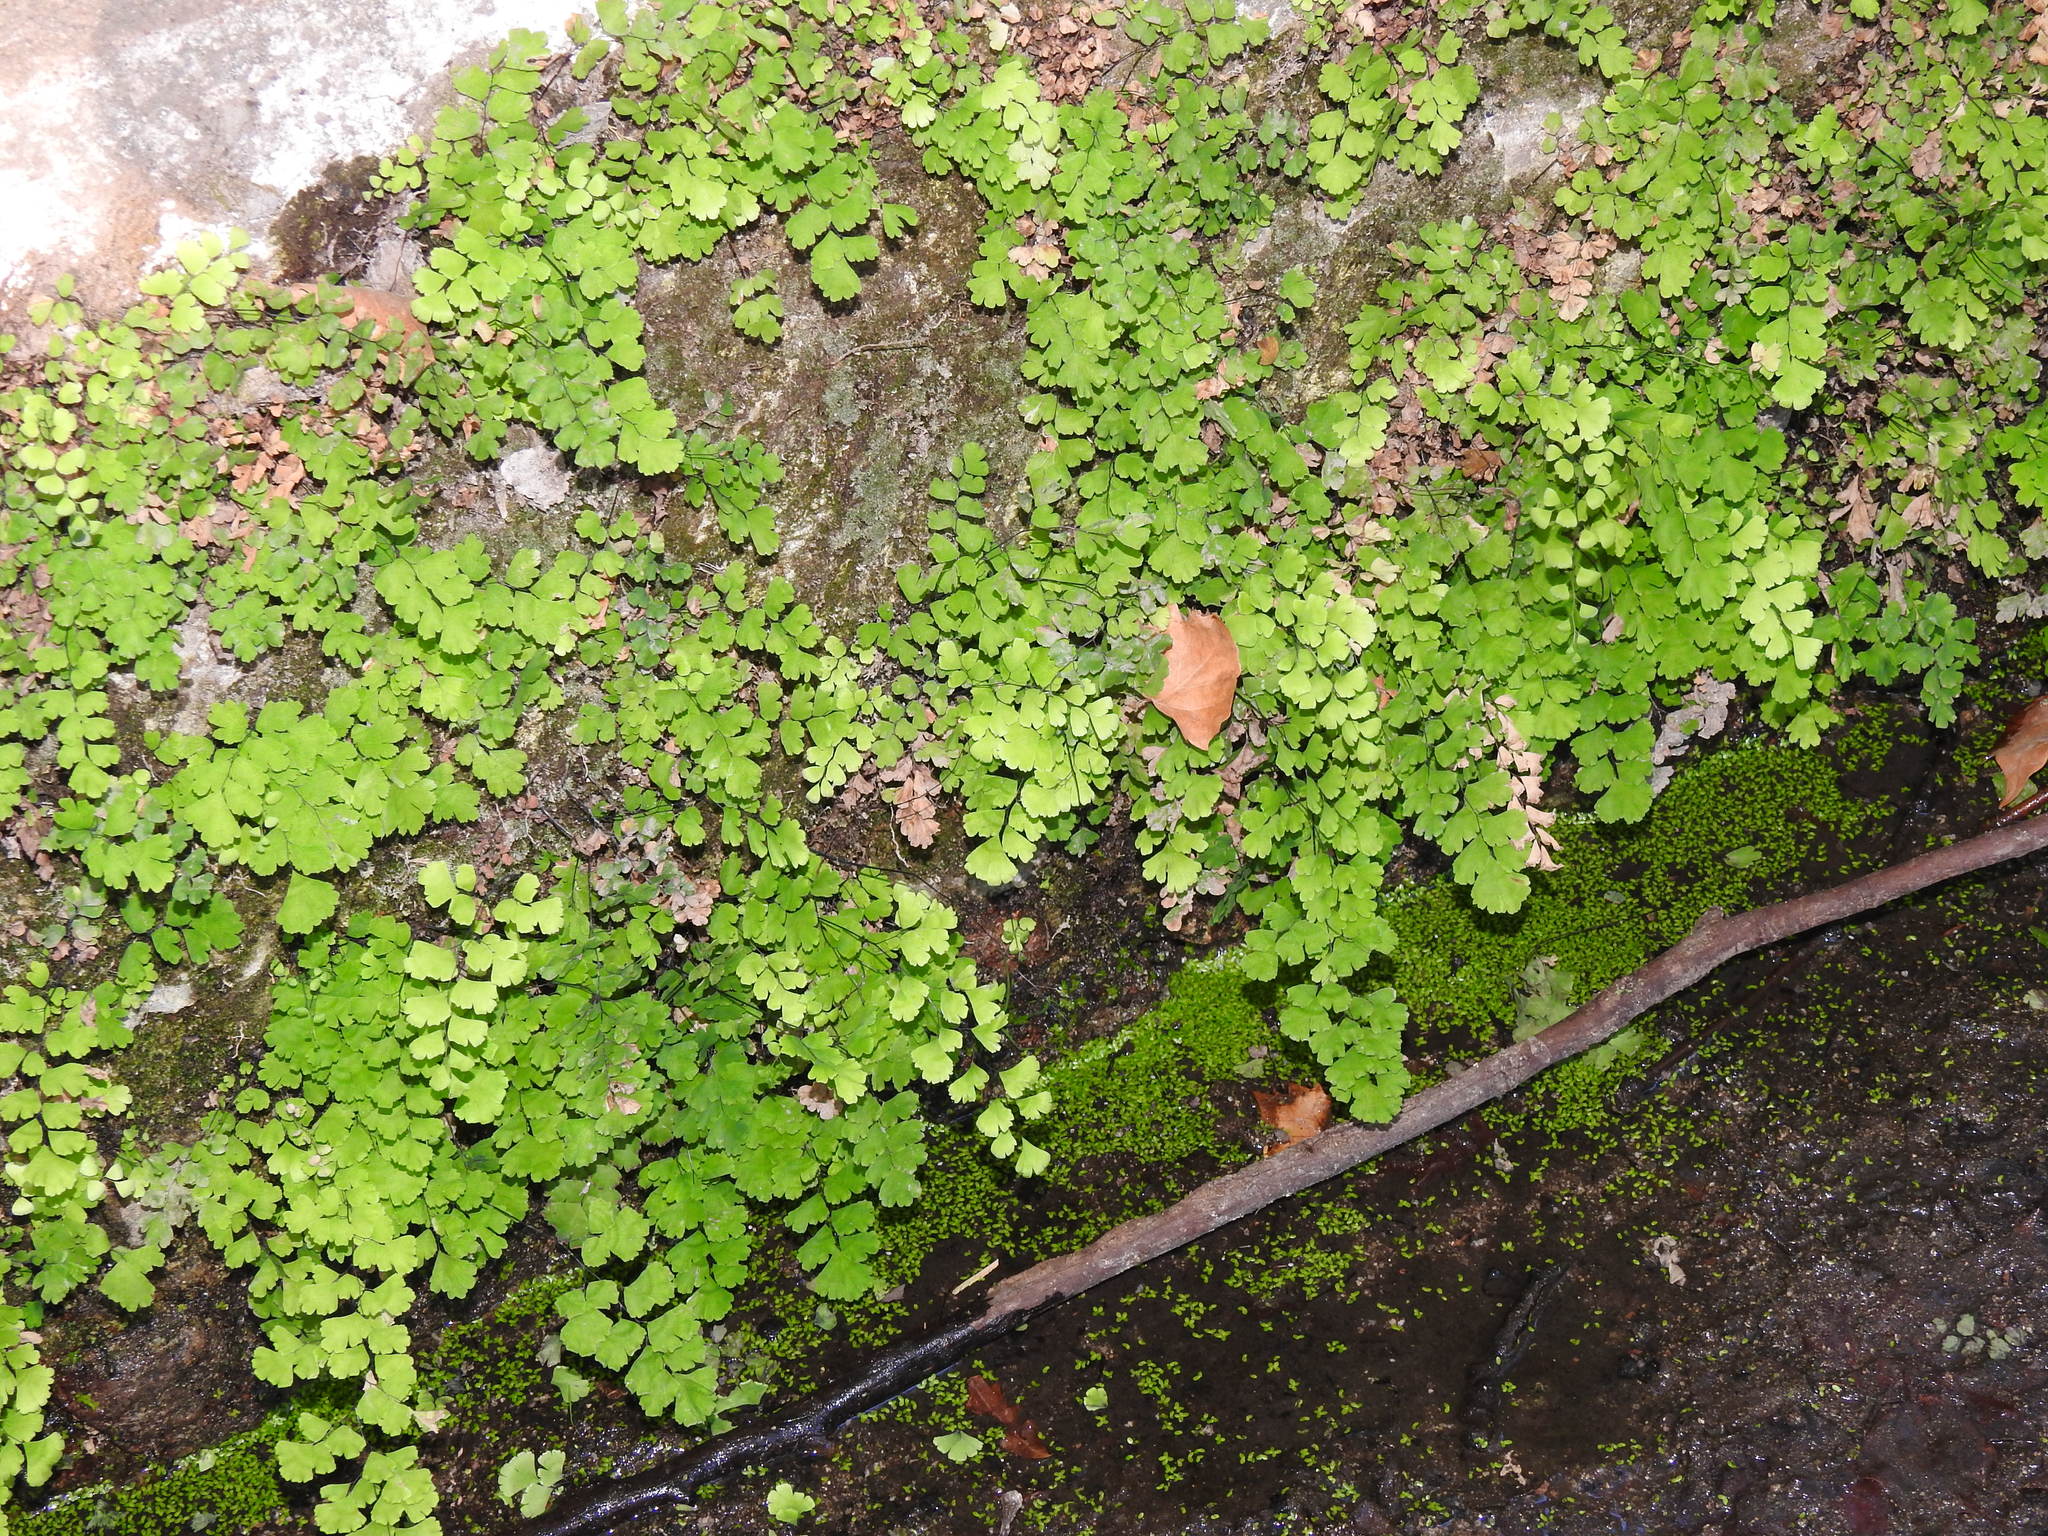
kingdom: Plantae
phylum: Tracheophyta
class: Polypodiopsida
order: Polypodiales
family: Pteridaceae
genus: Adiantum
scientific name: Adiantum capillus-veneris
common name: Maidenhair fern
